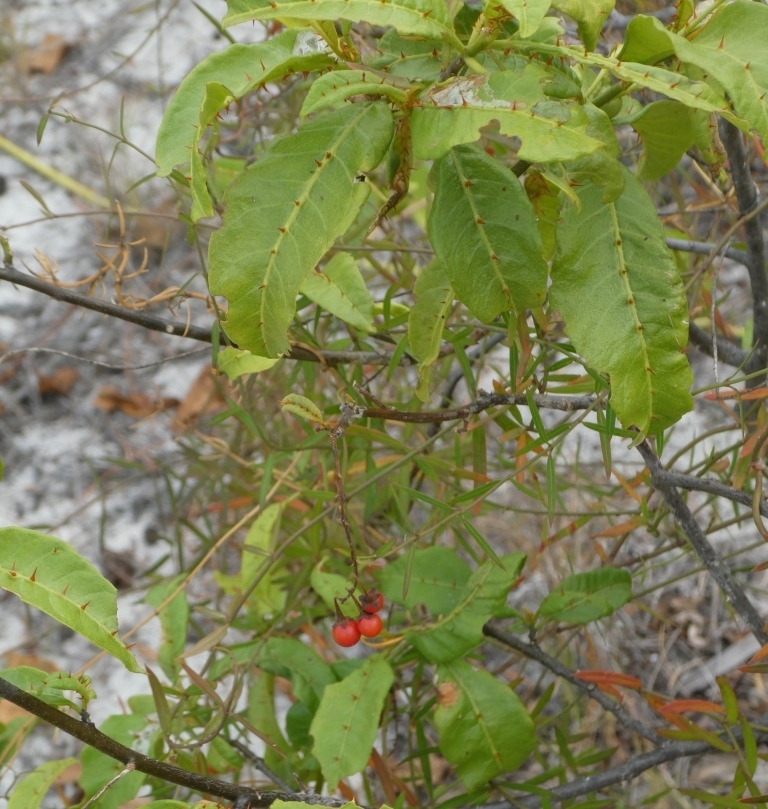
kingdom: Plantae
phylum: Tracheophyta
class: Magnoliopsida
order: Solanales
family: Solanaceae
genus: Solanum
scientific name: Solanum bahamense
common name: Canker-berry
